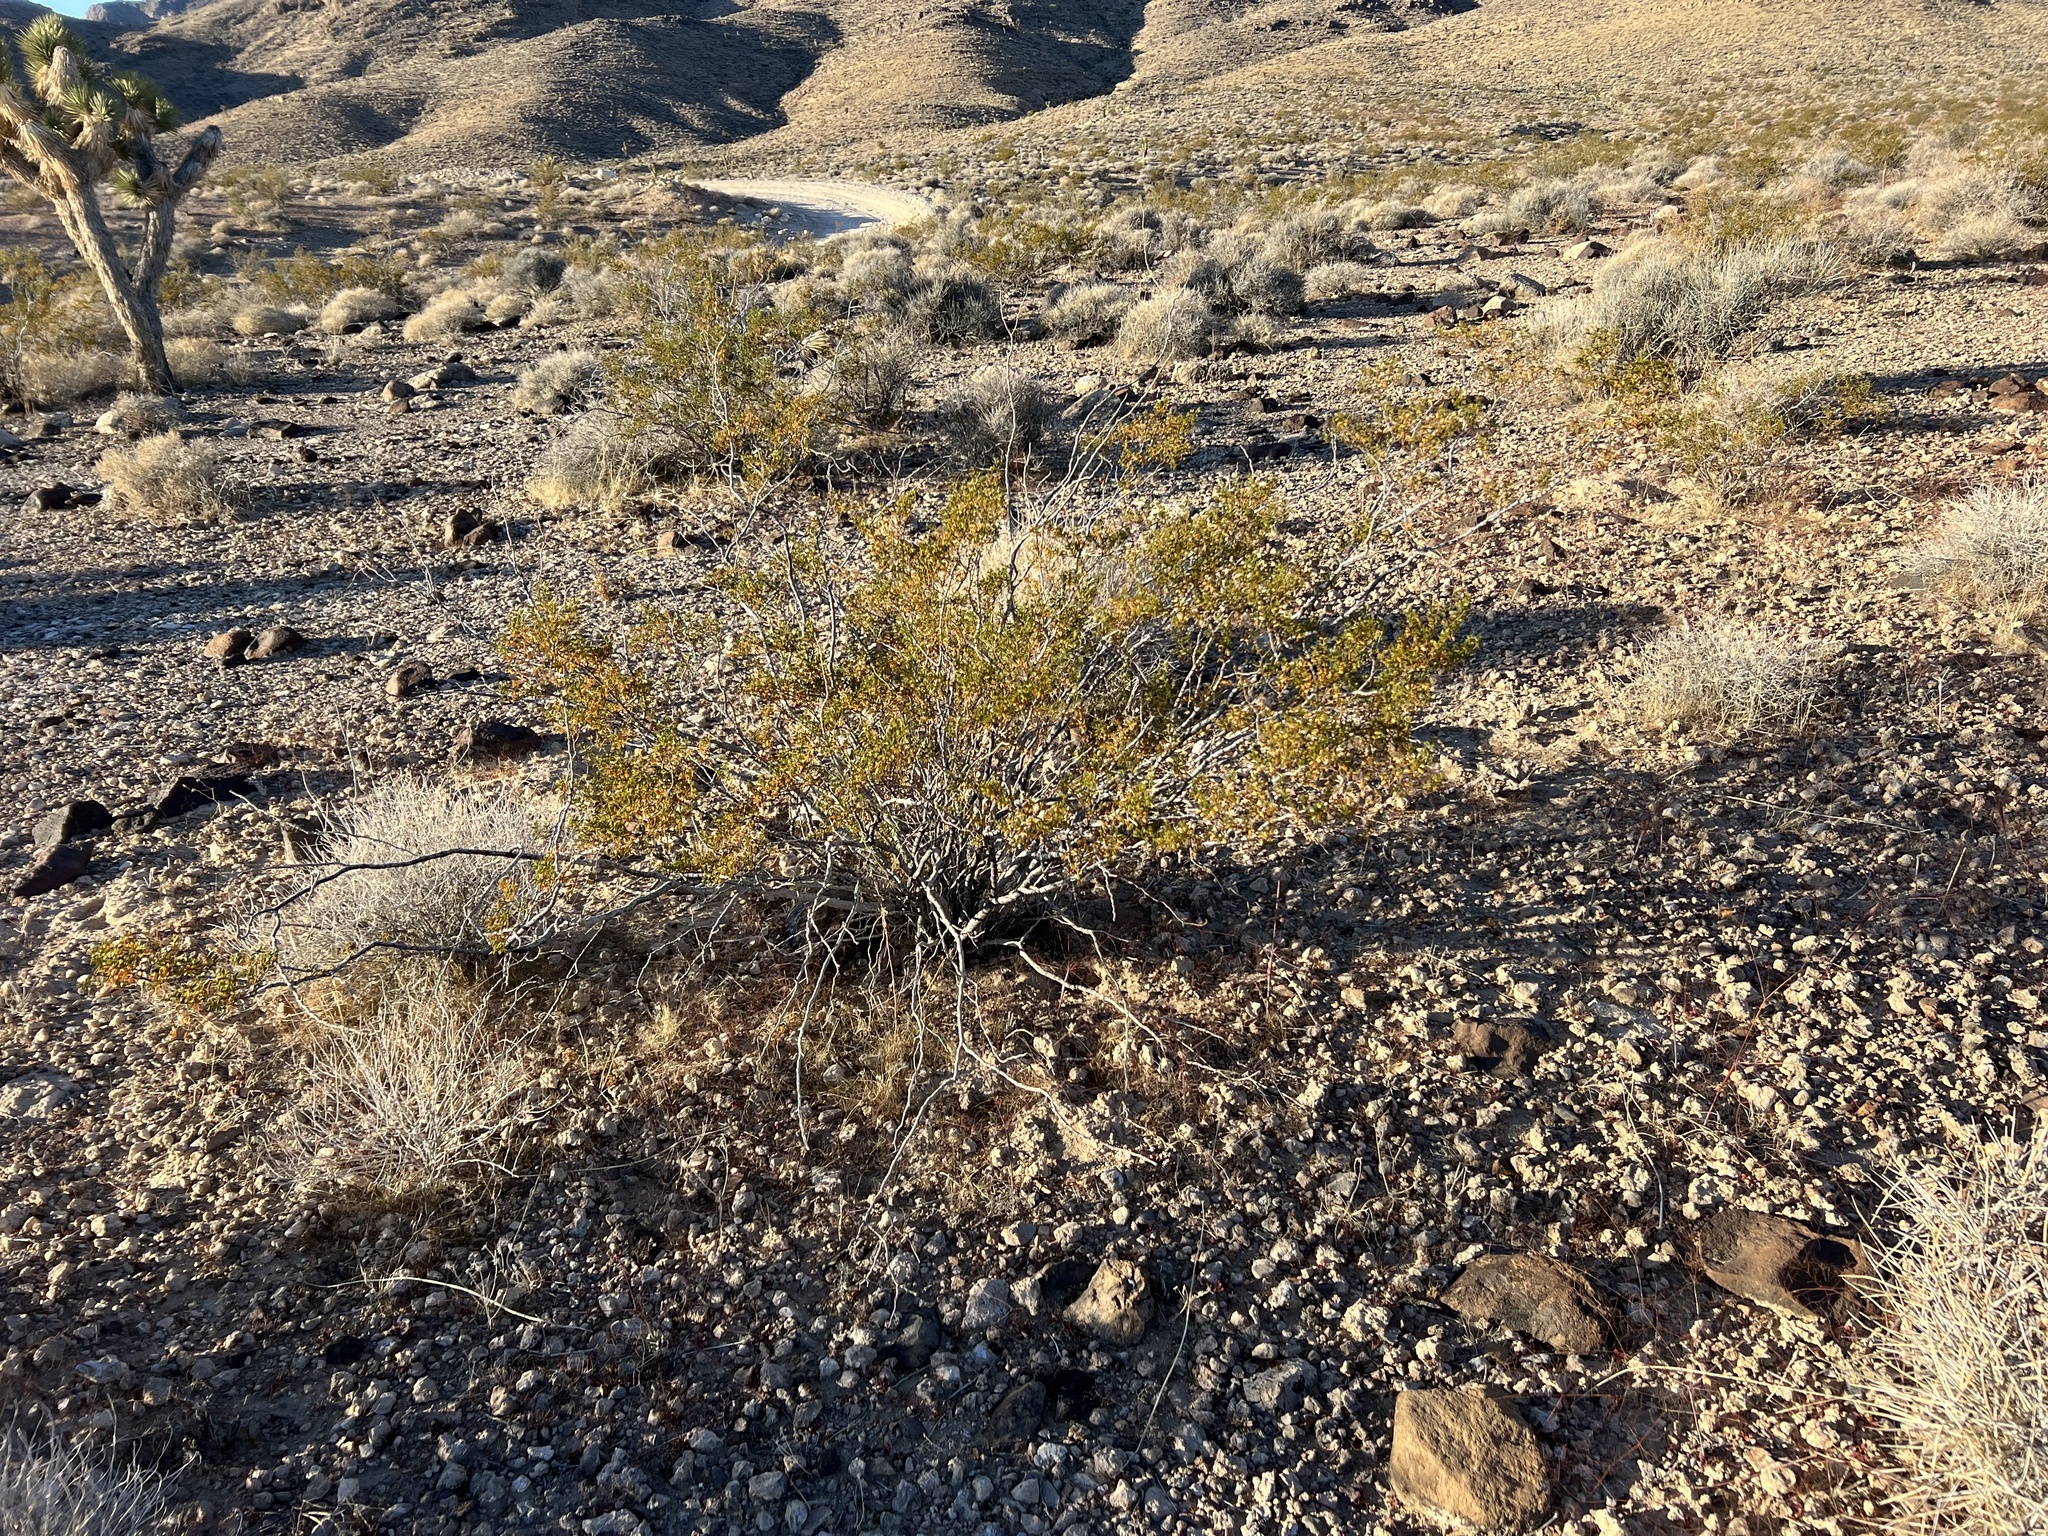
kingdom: Plantae
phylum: Tracheophyta
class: Magnoliopsida
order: Zygophyllales
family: Zygophyllaceae
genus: Larrea
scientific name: Larrea tridentata
